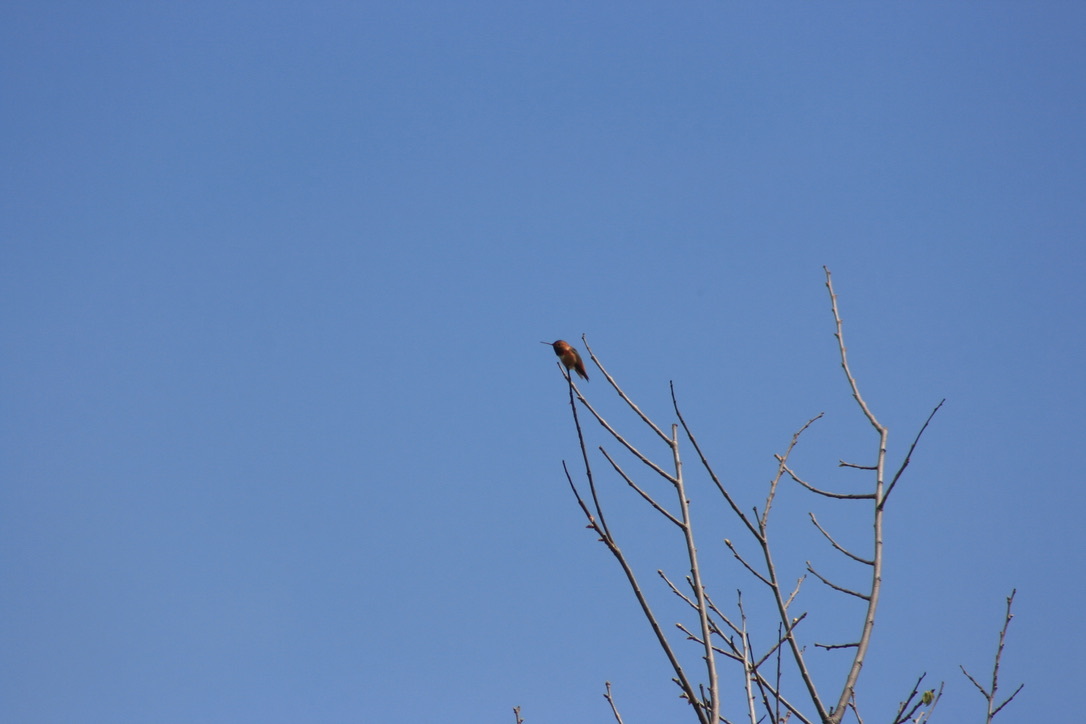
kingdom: Animalia
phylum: Chordata
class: Aves
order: Apodiformes
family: Trochilidae
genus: Selasphorus
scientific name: Selasphorus sasin
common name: Allen's hummingbird
